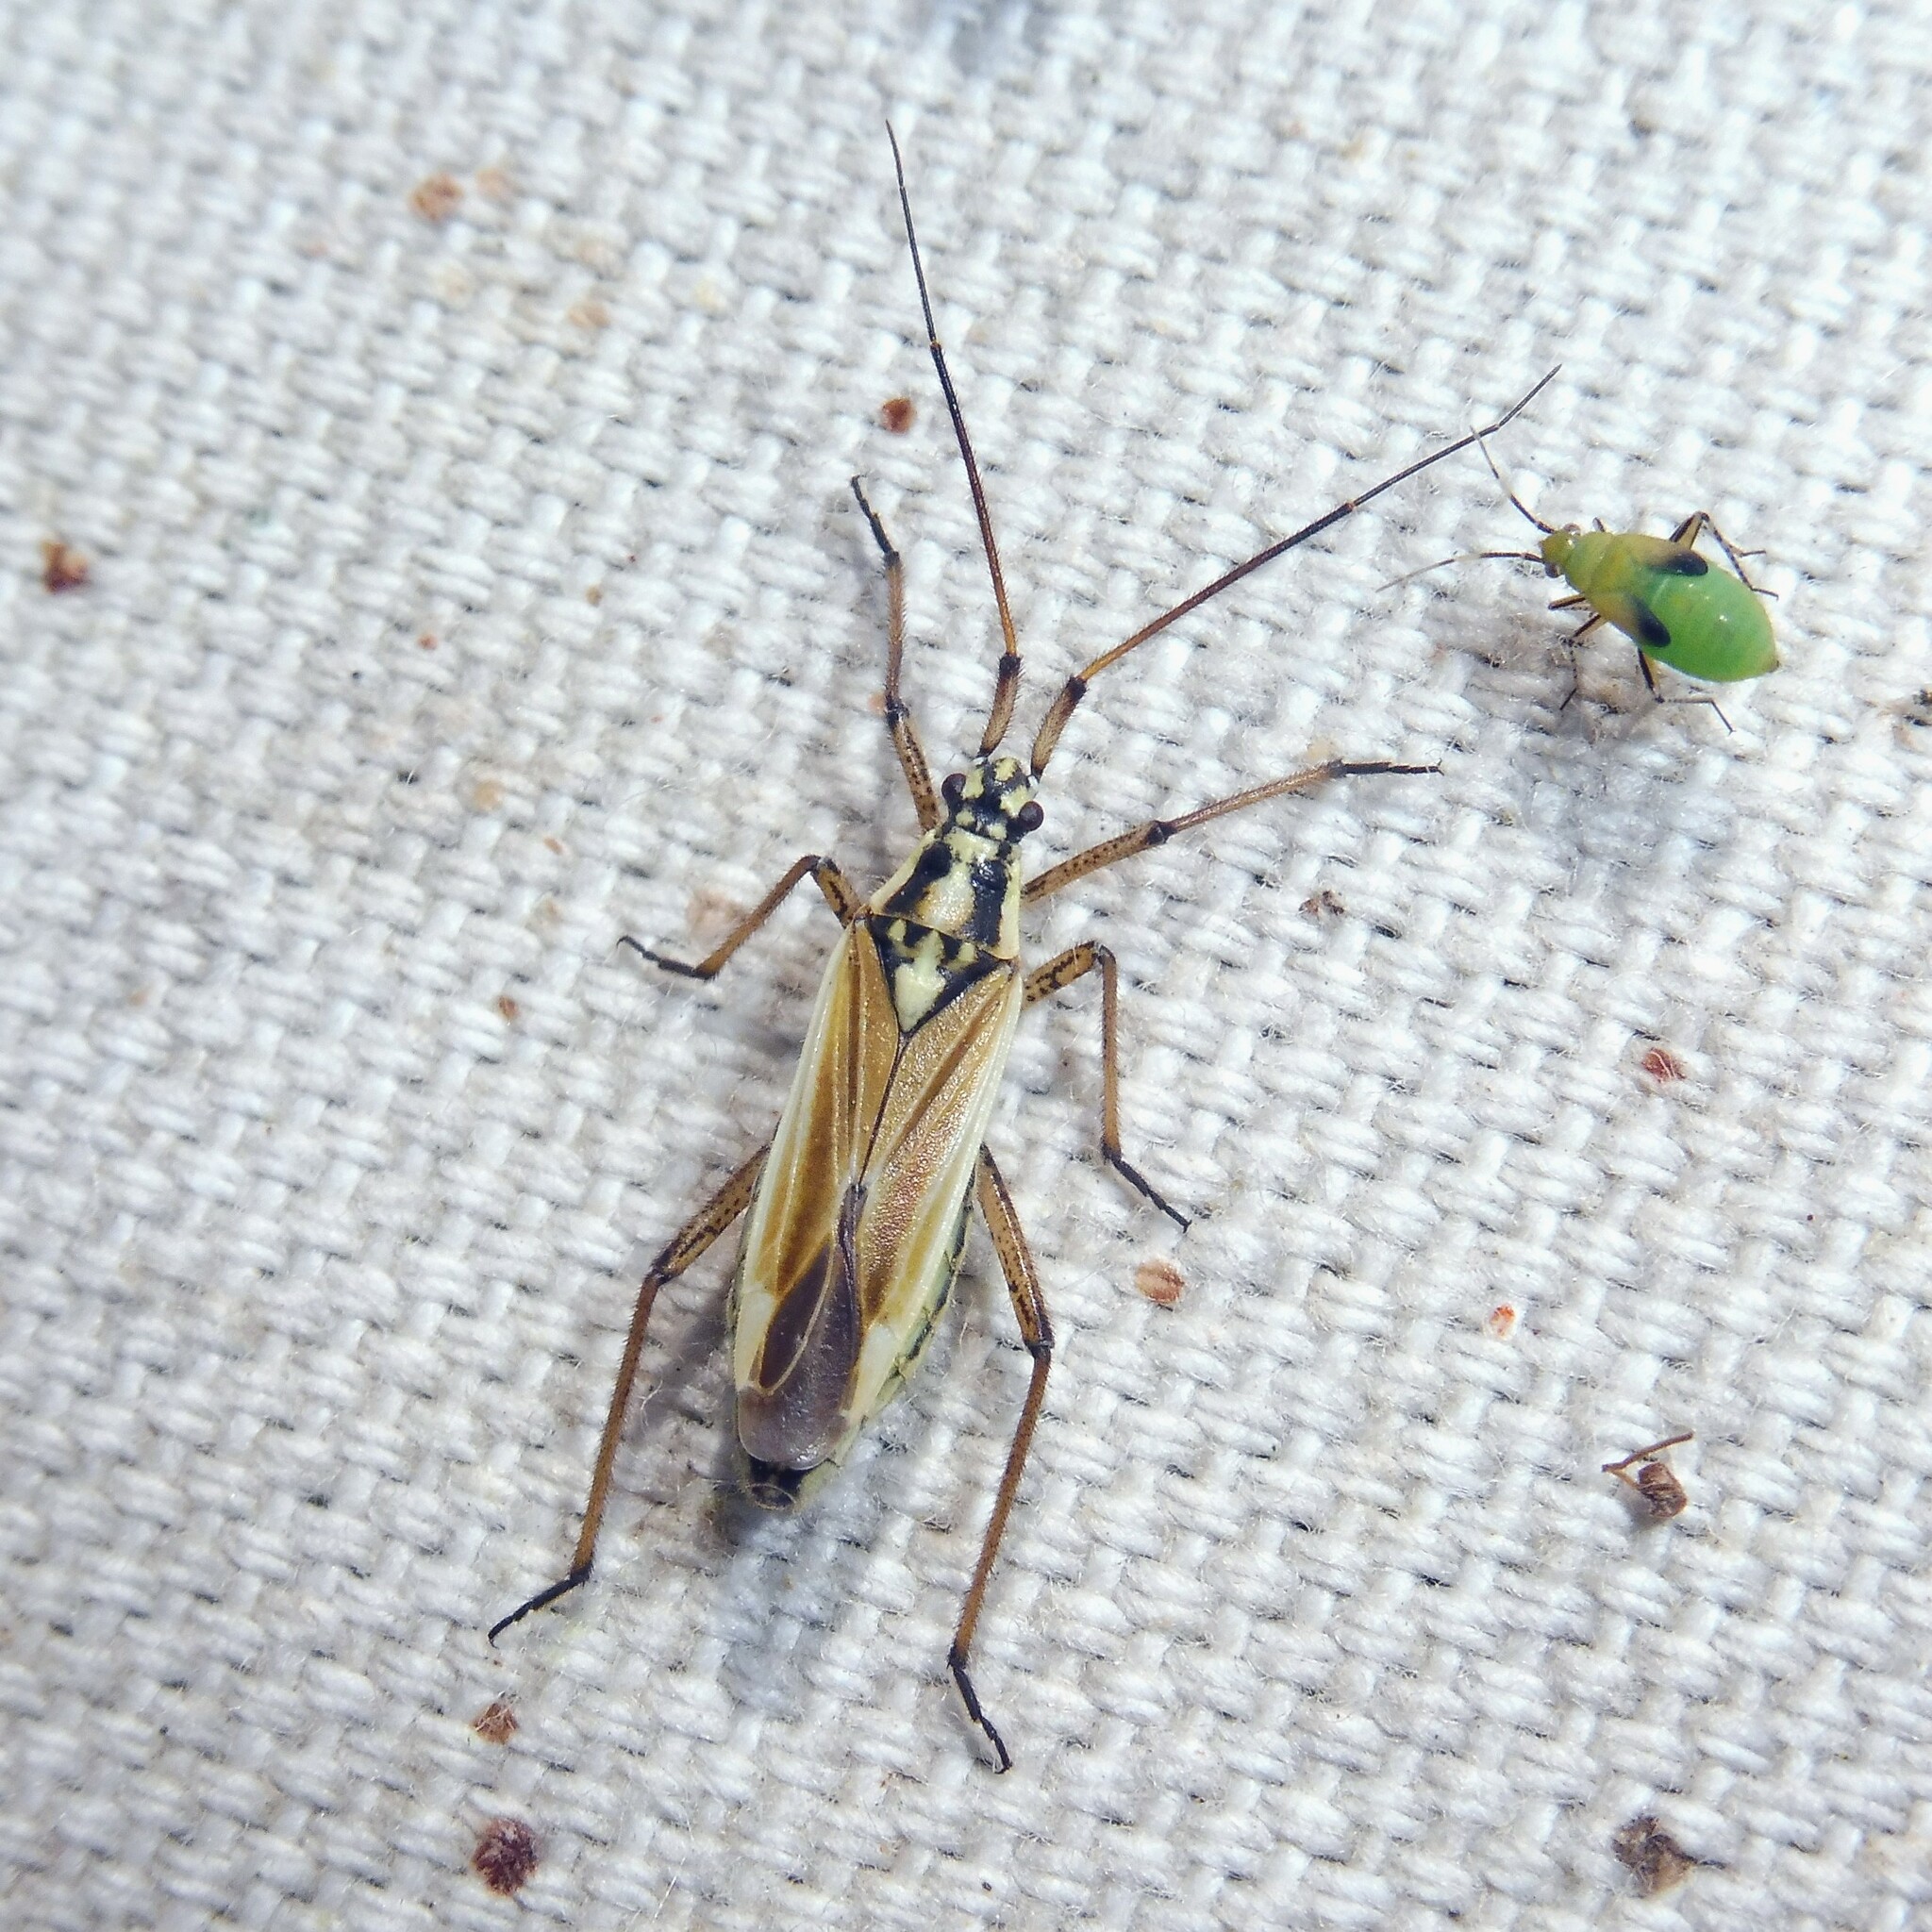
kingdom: Animalia
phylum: Arthropoda
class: Insecta
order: Hemiptera
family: Miridae
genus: Leptopterna
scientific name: Leptopterna dolabrata
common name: Meadow plant bug
